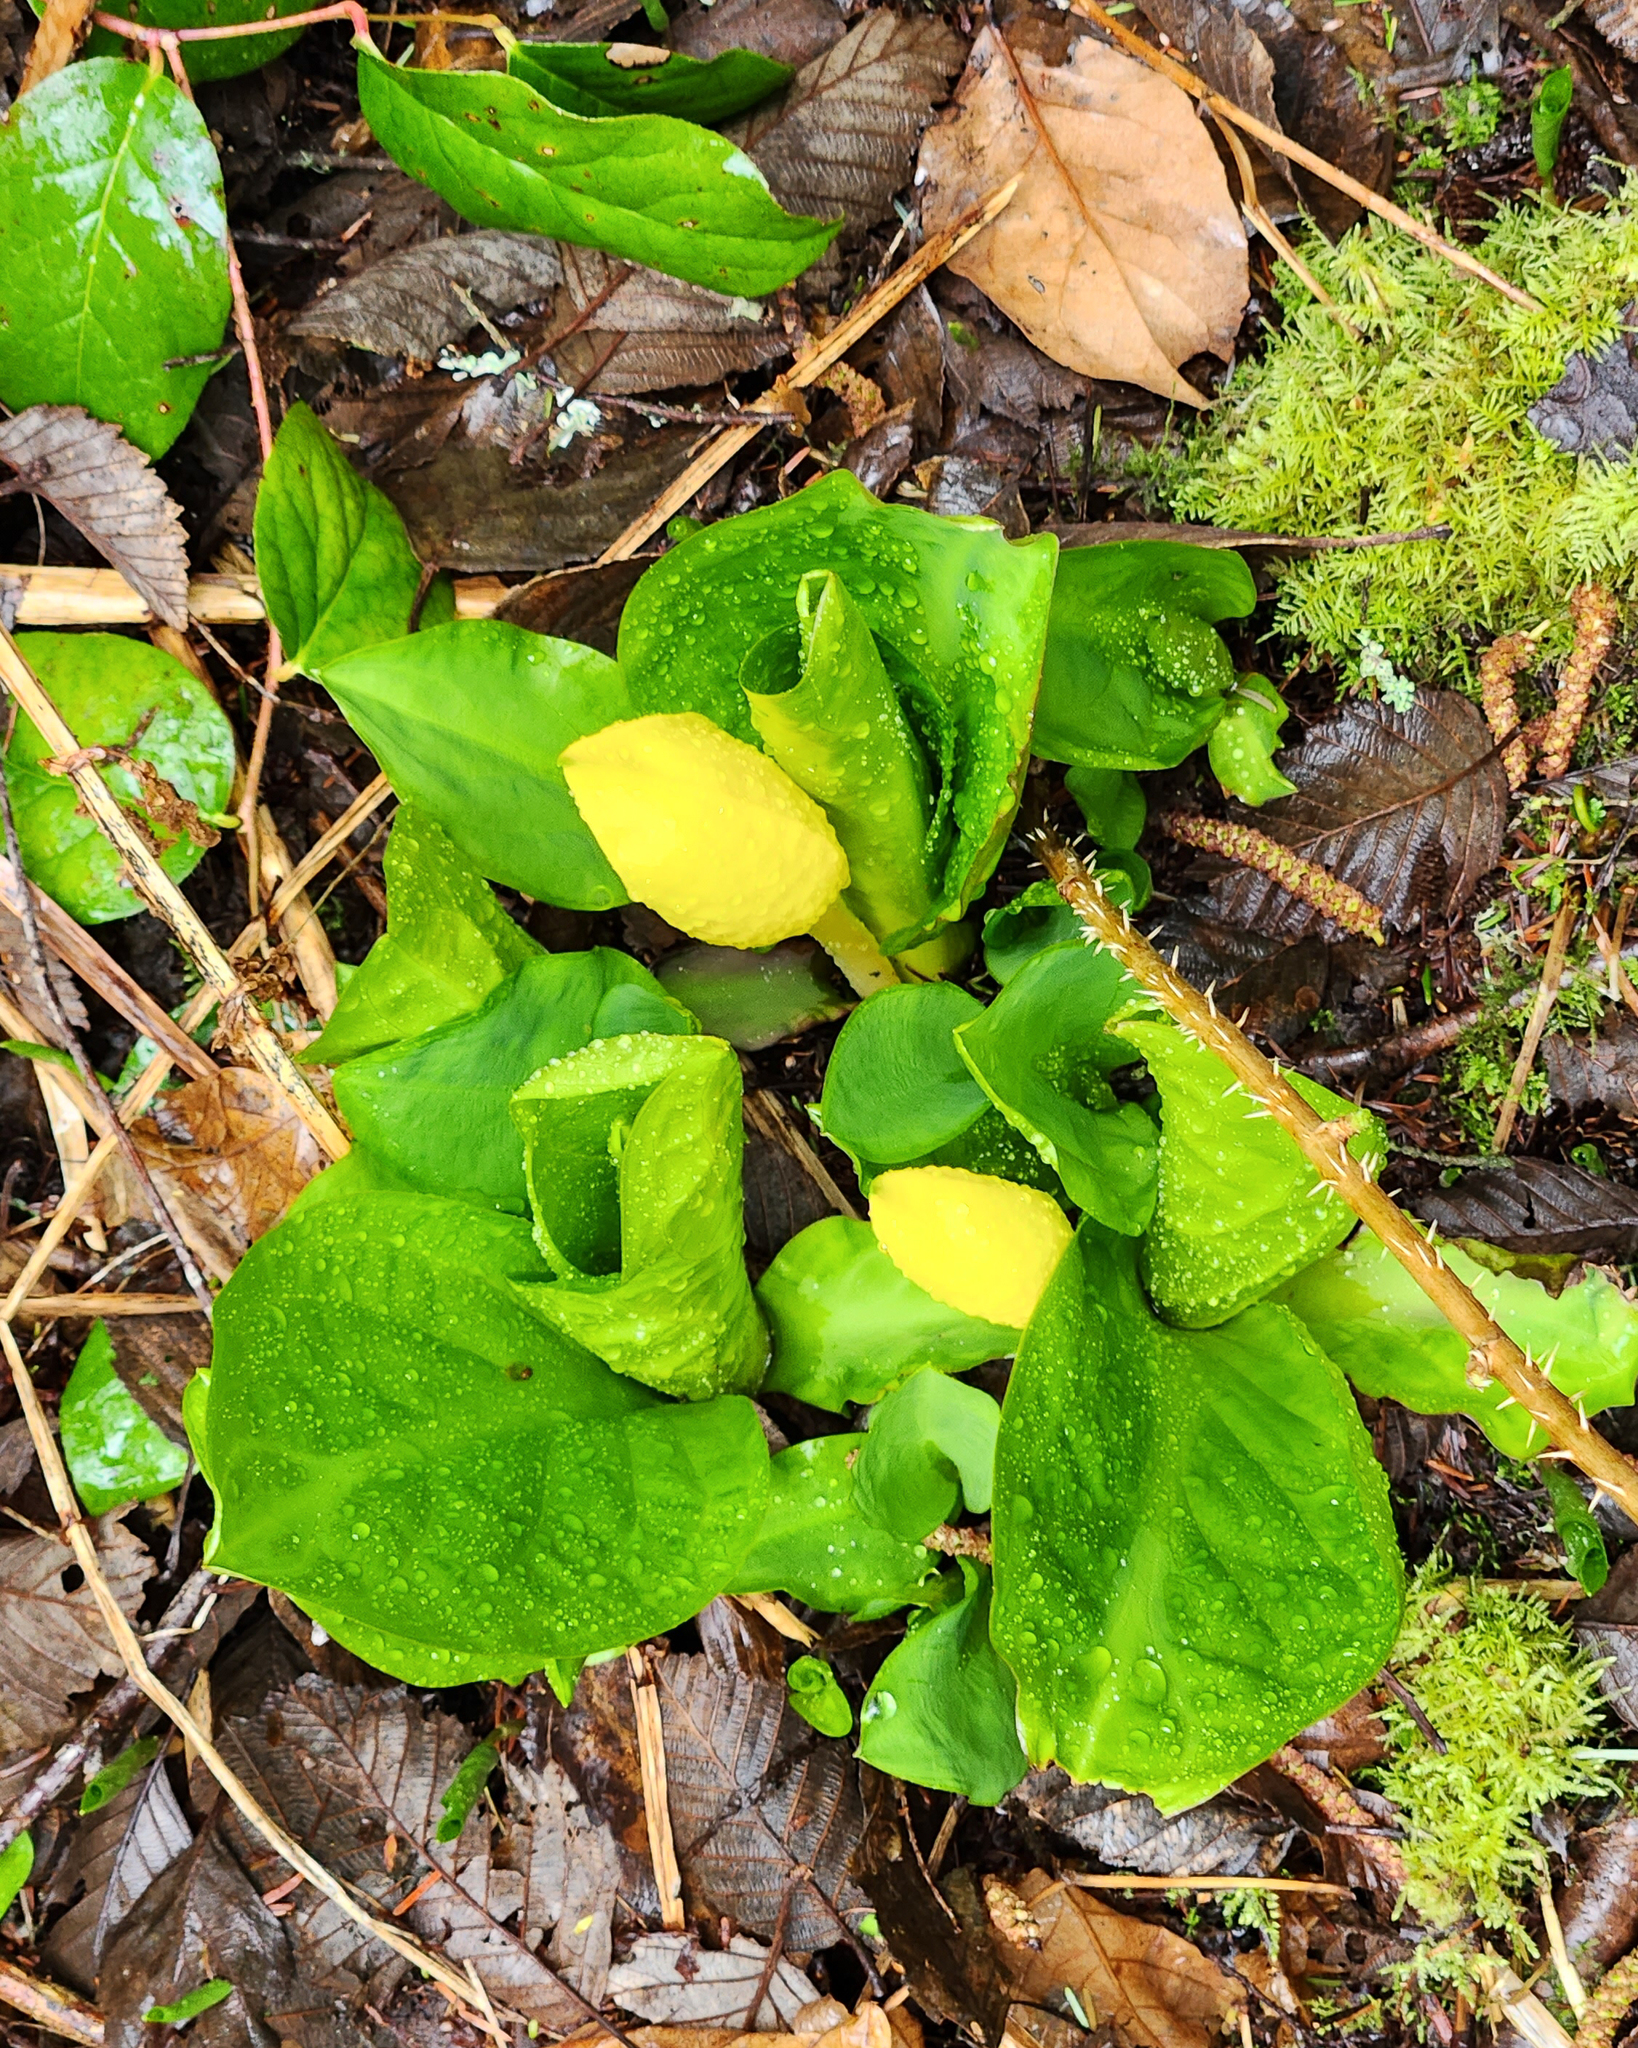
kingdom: Plantae
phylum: Tracheophyta
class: Liliopsida
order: Alismatales
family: Araceae
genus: Lysichiton
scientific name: Lysichiton americanus
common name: American skunk cabbage
